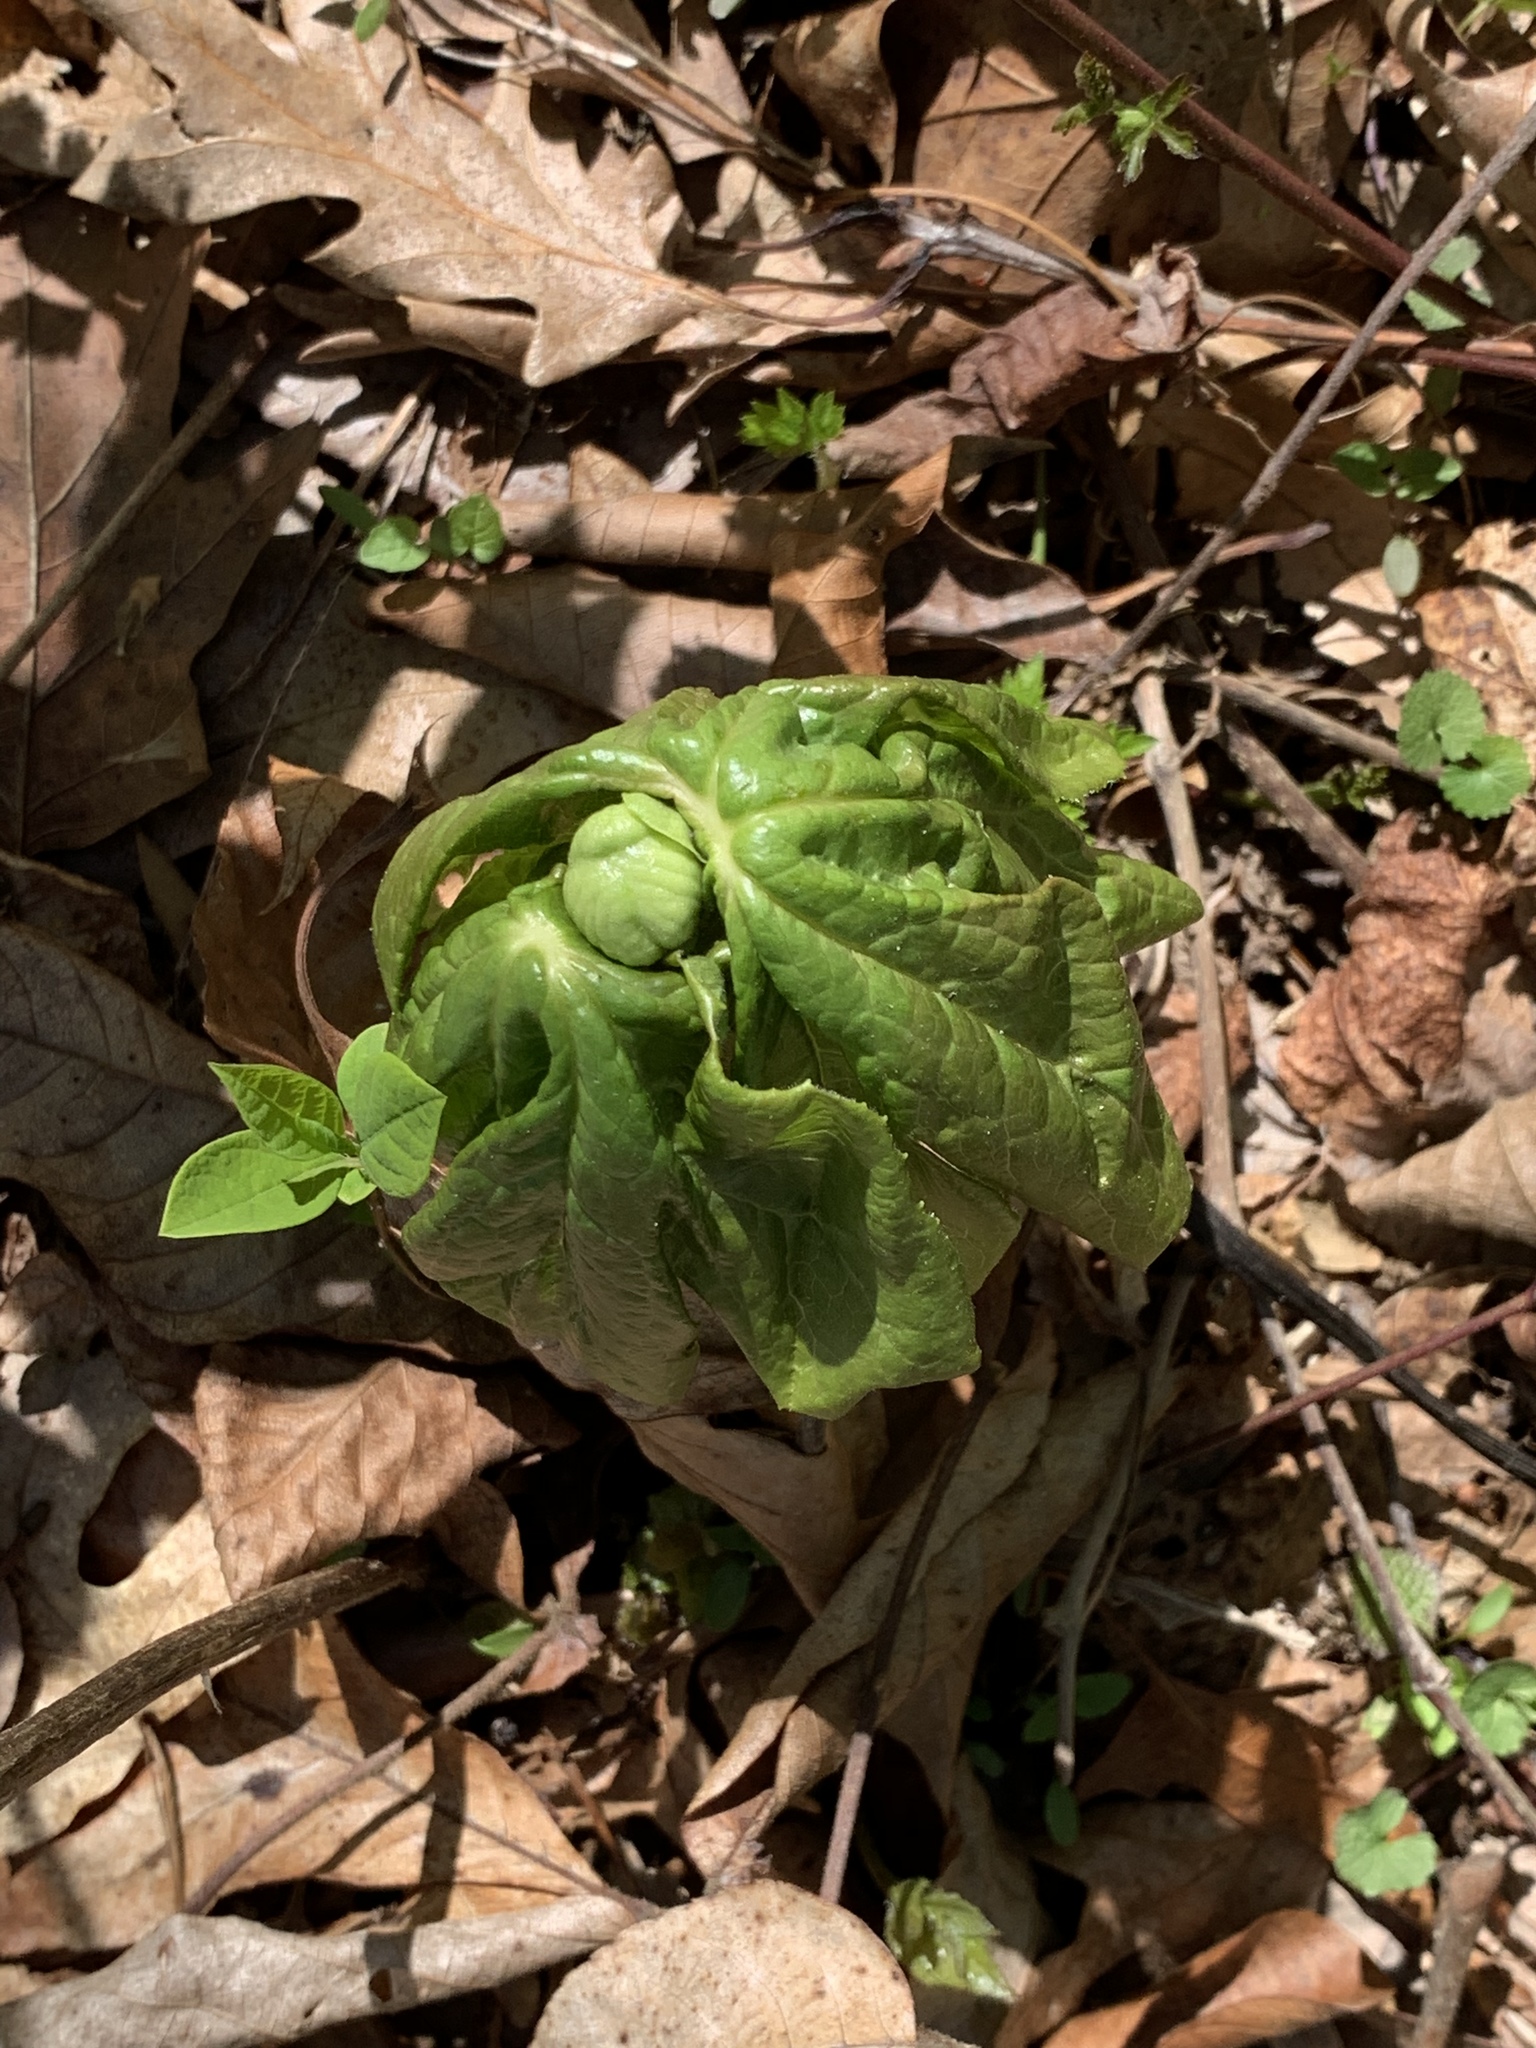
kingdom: Plantae
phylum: Tracheophyta
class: Magnoliopsida
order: Ranunculales
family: Berberidaceae
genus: Podophyllum
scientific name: Podophyllum peltatum
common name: Wild mandrake
